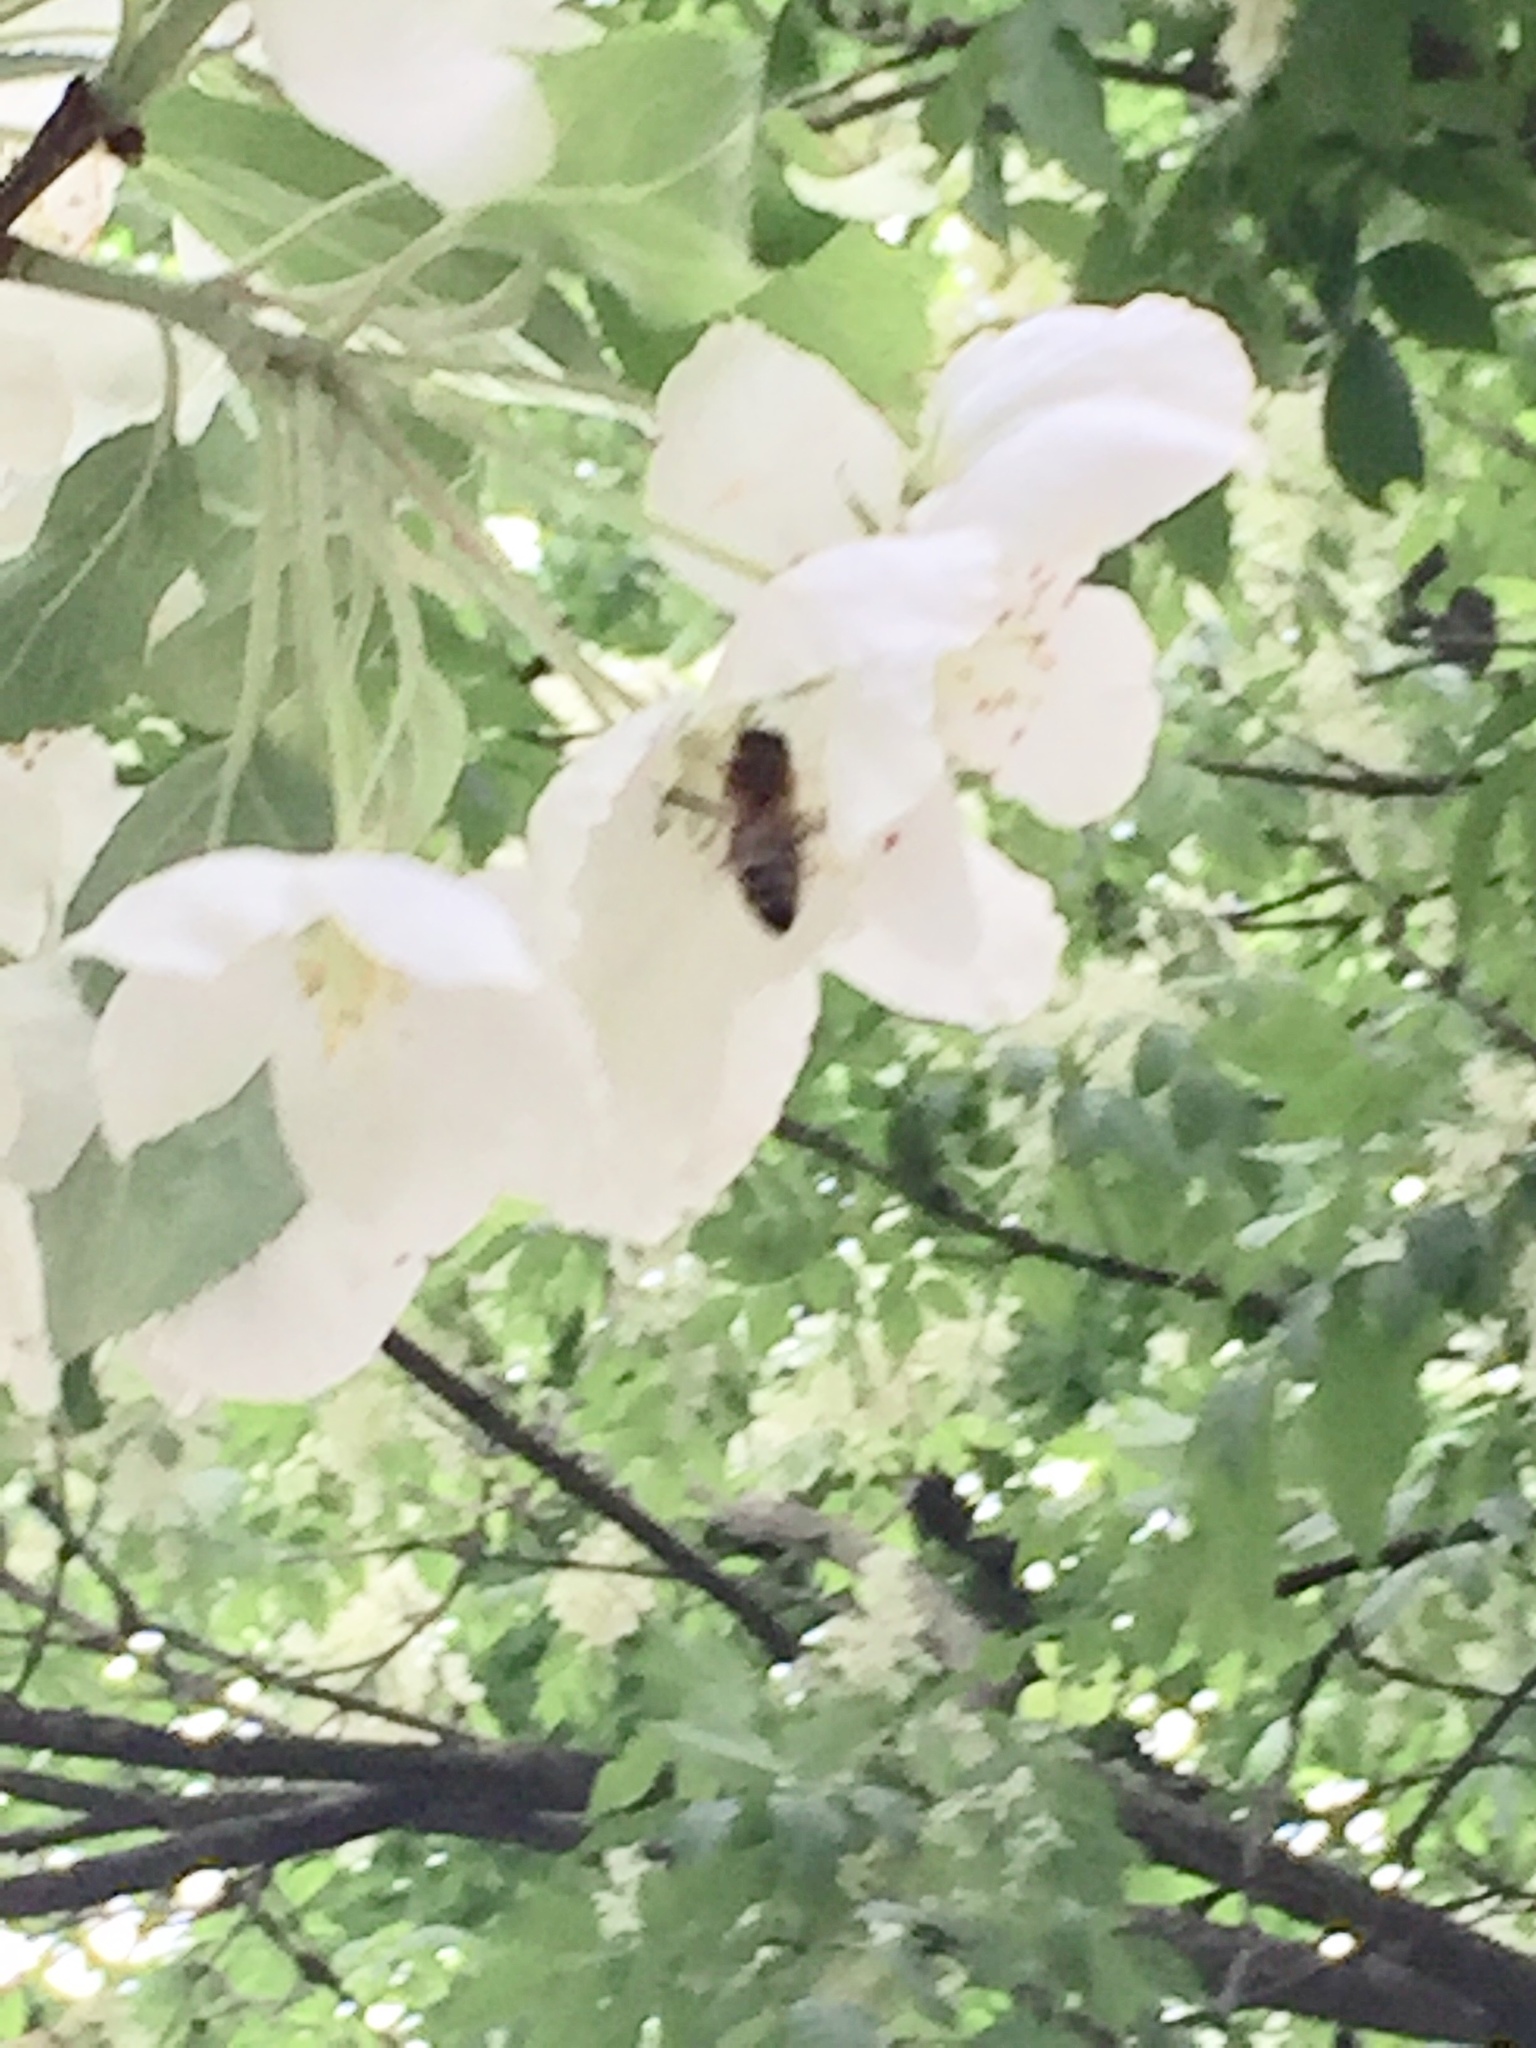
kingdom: Animalia
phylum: Arthropoda
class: Insecta
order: Hymenoptera
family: Apidae
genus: Apis
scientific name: Apis mellifera
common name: Honey bee
